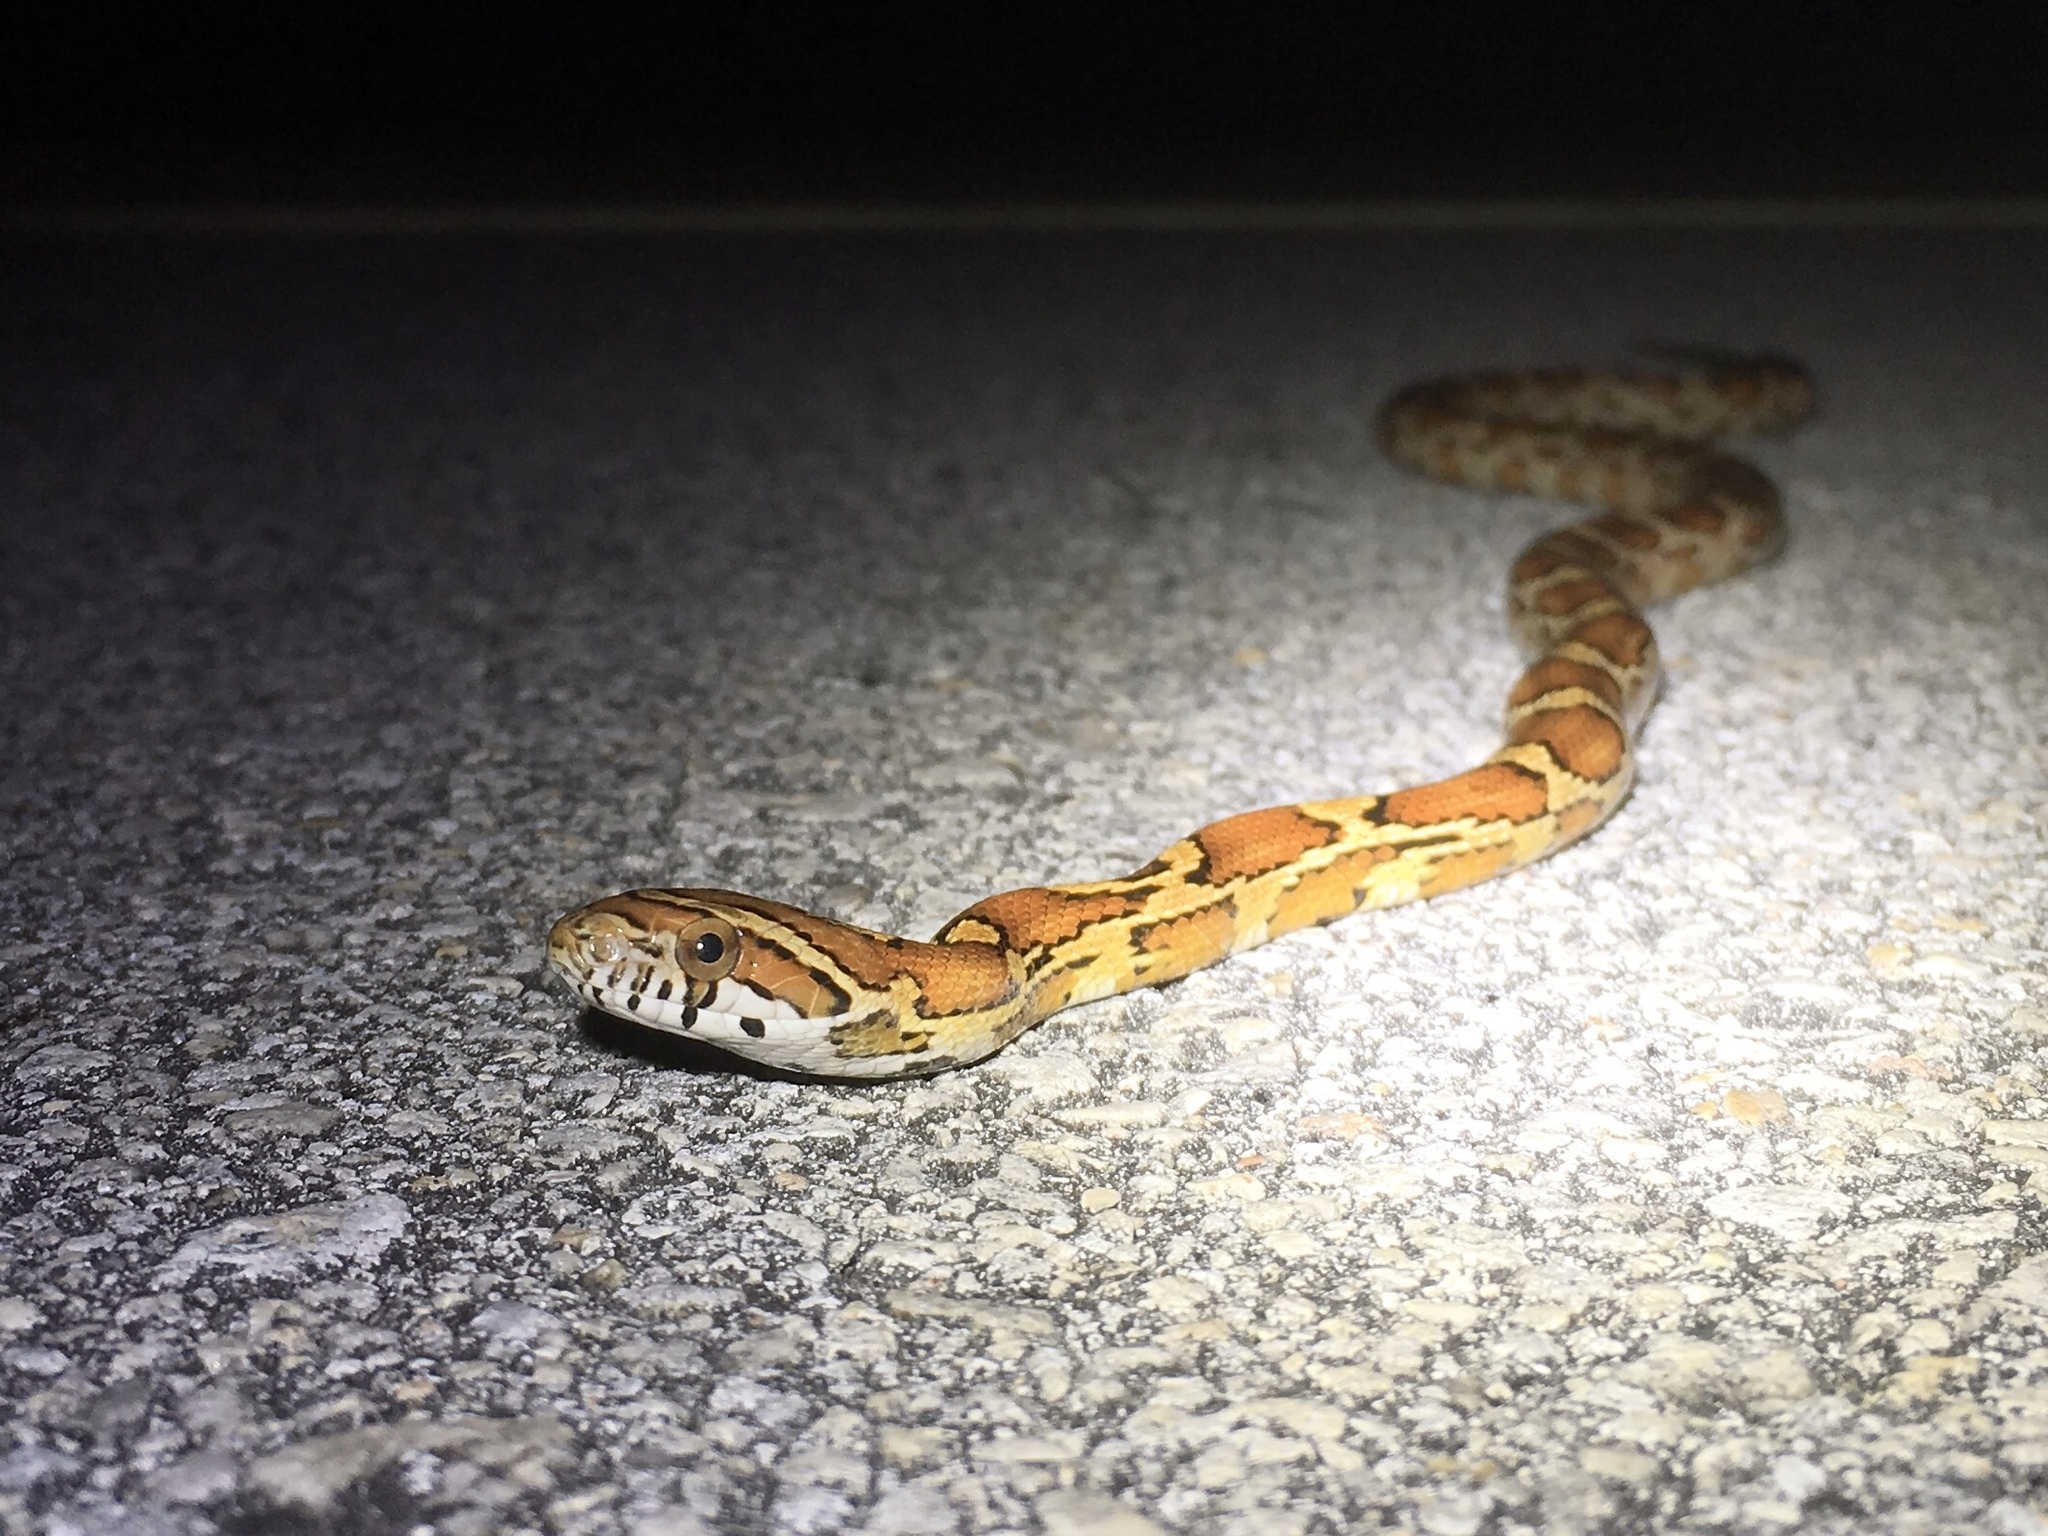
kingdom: Animalia
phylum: Chordata
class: Squamata
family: Colubridae
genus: Pantherophis
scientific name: Pantherophis guttatus
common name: Red cornsnake
